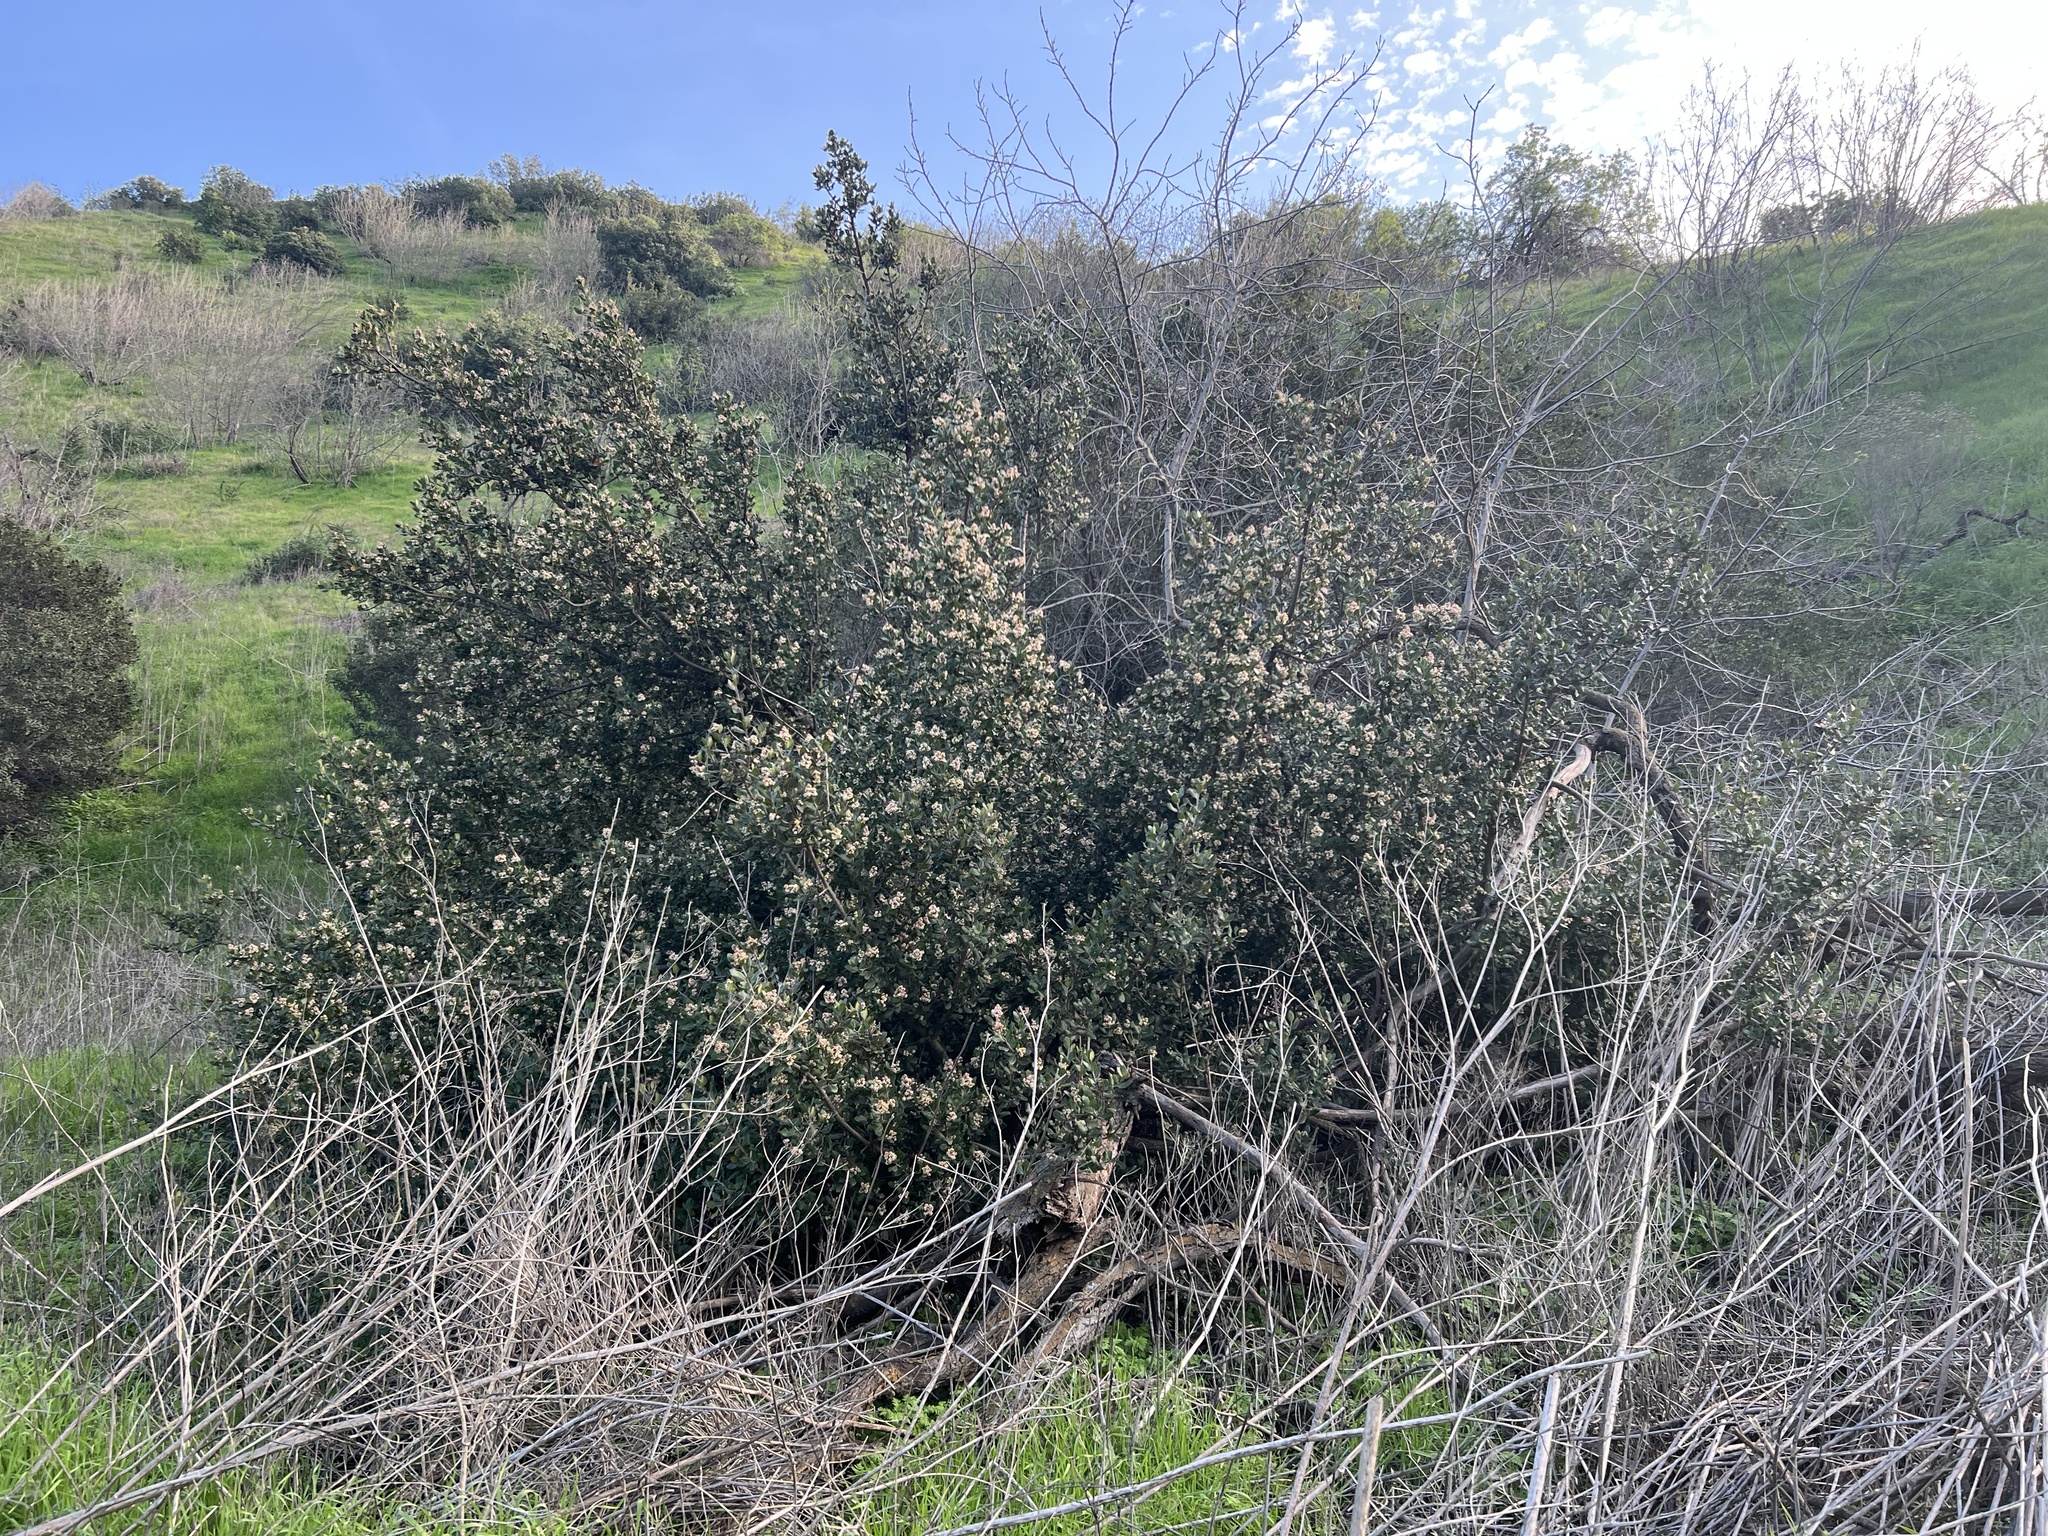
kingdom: Plantae
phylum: Tracheophyta
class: Magnoliopsida
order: Sapindales
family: Anacardiaceae
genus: Rhus
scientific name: Rhus integrifolia
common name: Lemonade sumac
